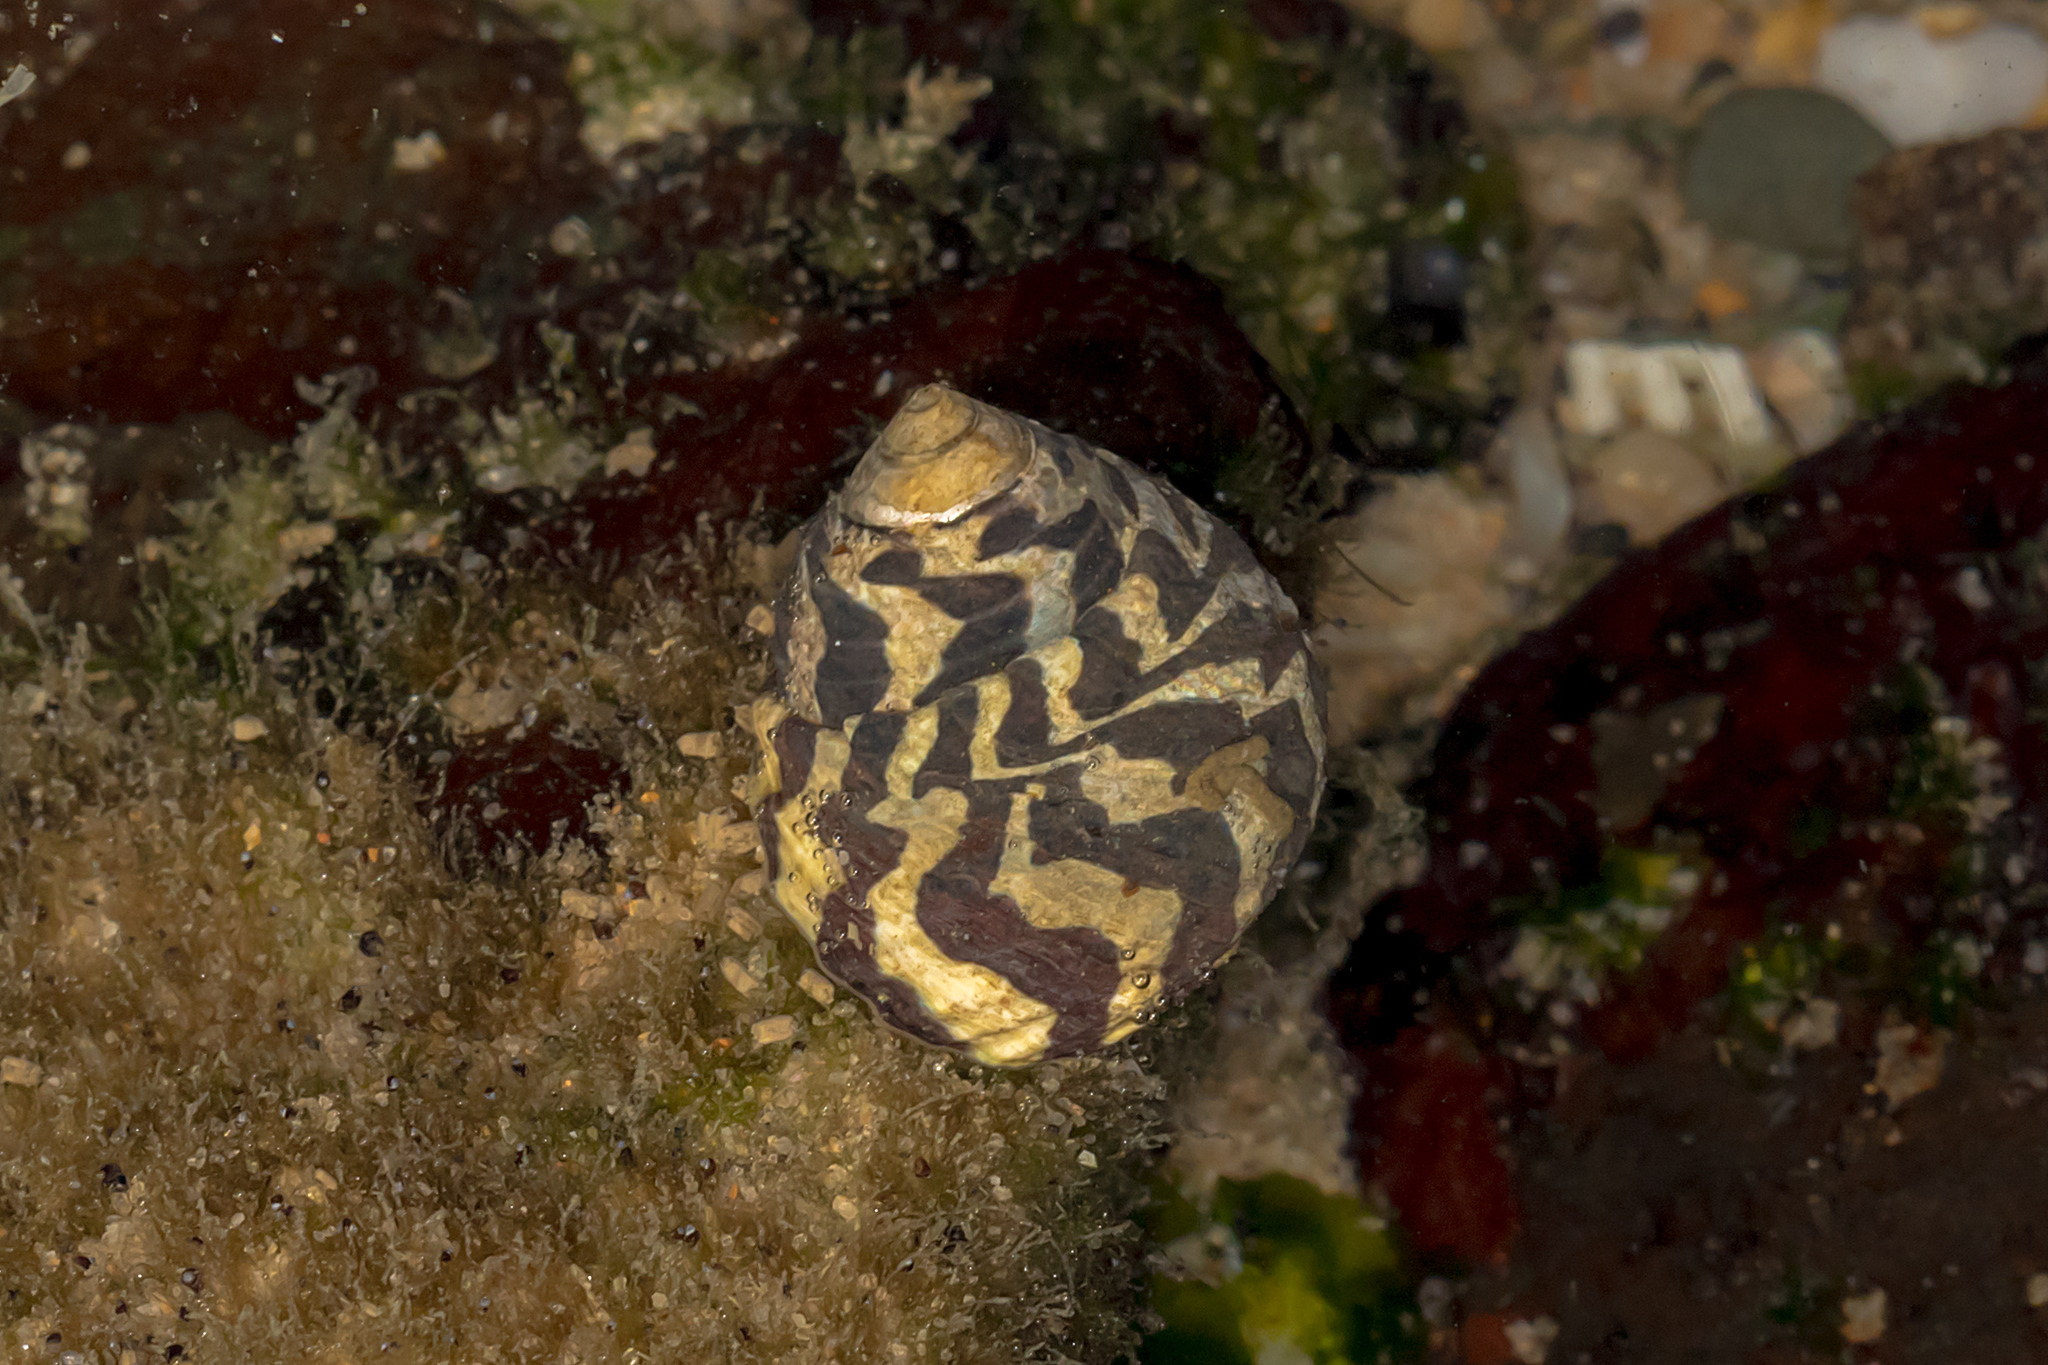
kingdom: Animalia
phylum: Mollusca
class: Gastropoda
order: Trochida
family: Trochidae
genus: Austrocochlea
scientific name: Austrocochlea porcata
